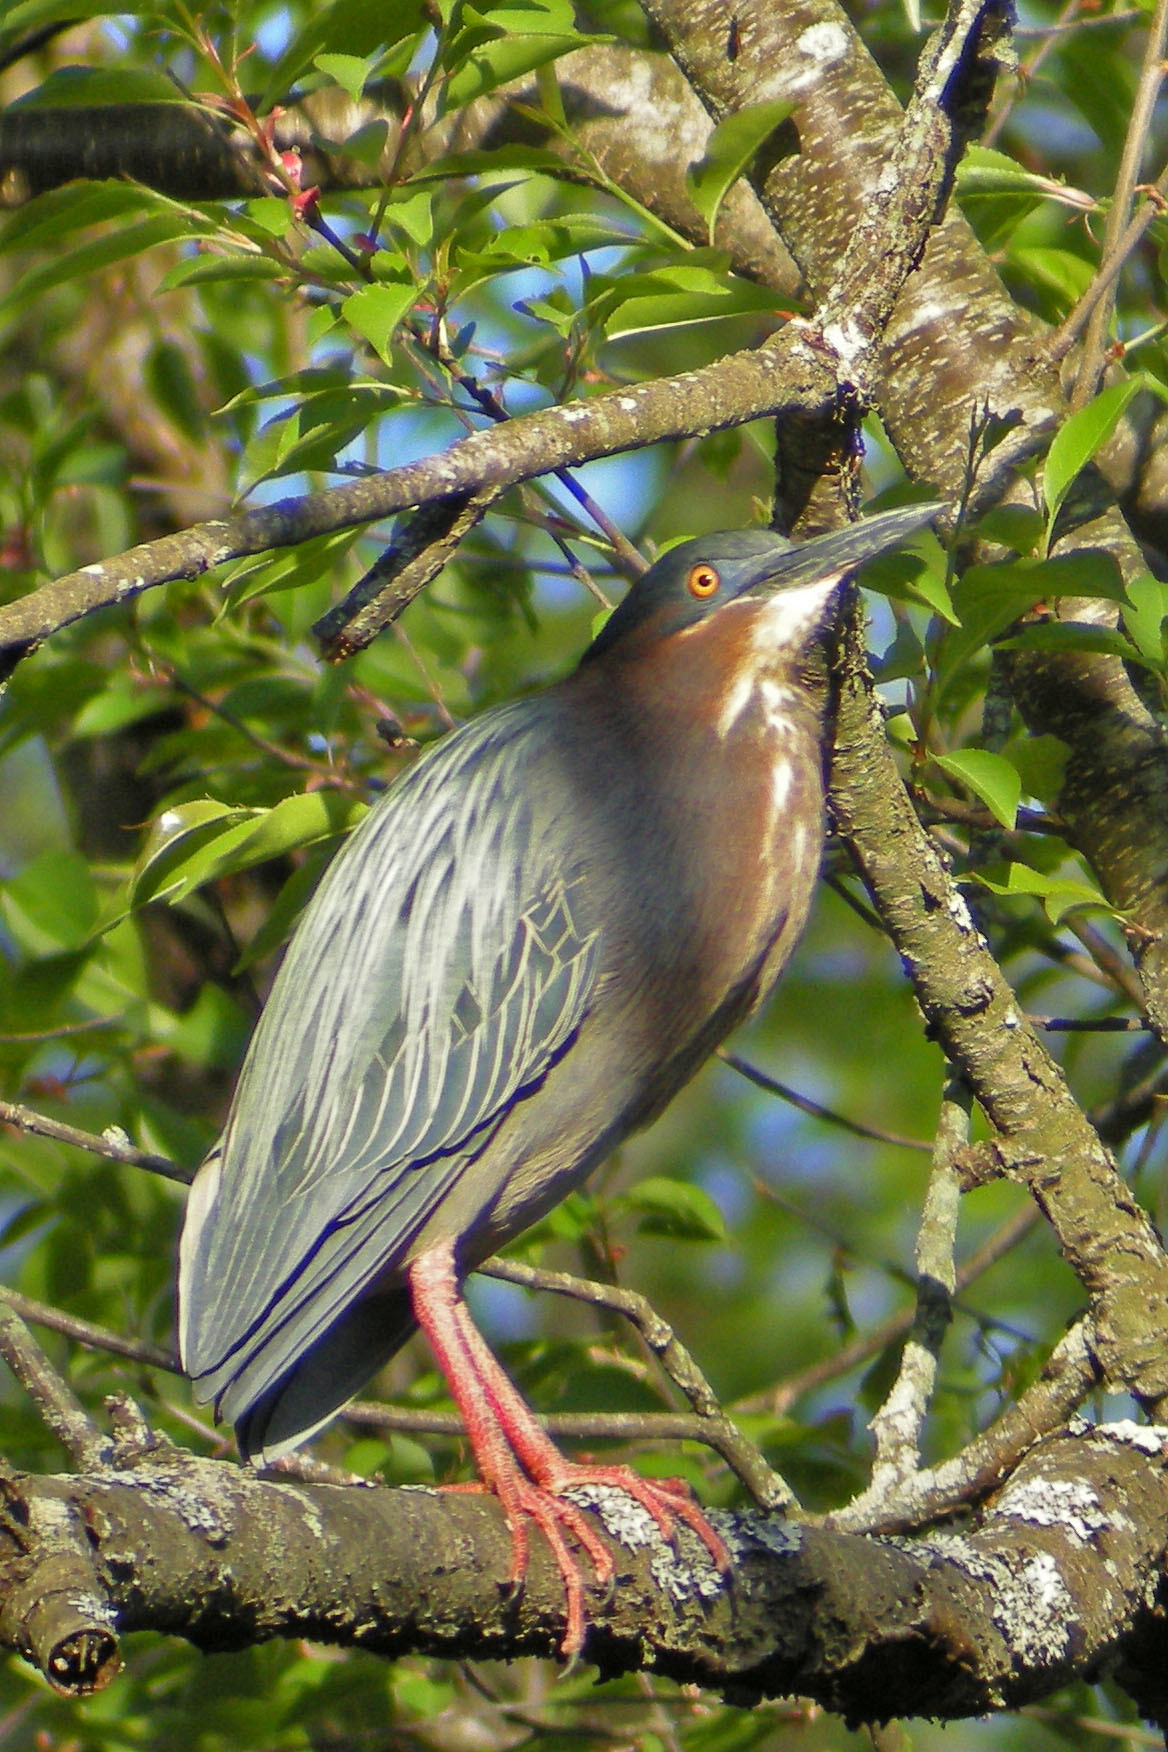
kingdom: Animalia
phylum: Chordata
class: Aves
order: Pelecaniformes
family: Ardeidae
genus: Butorides
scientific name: Butorides virescens
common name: Green heron
